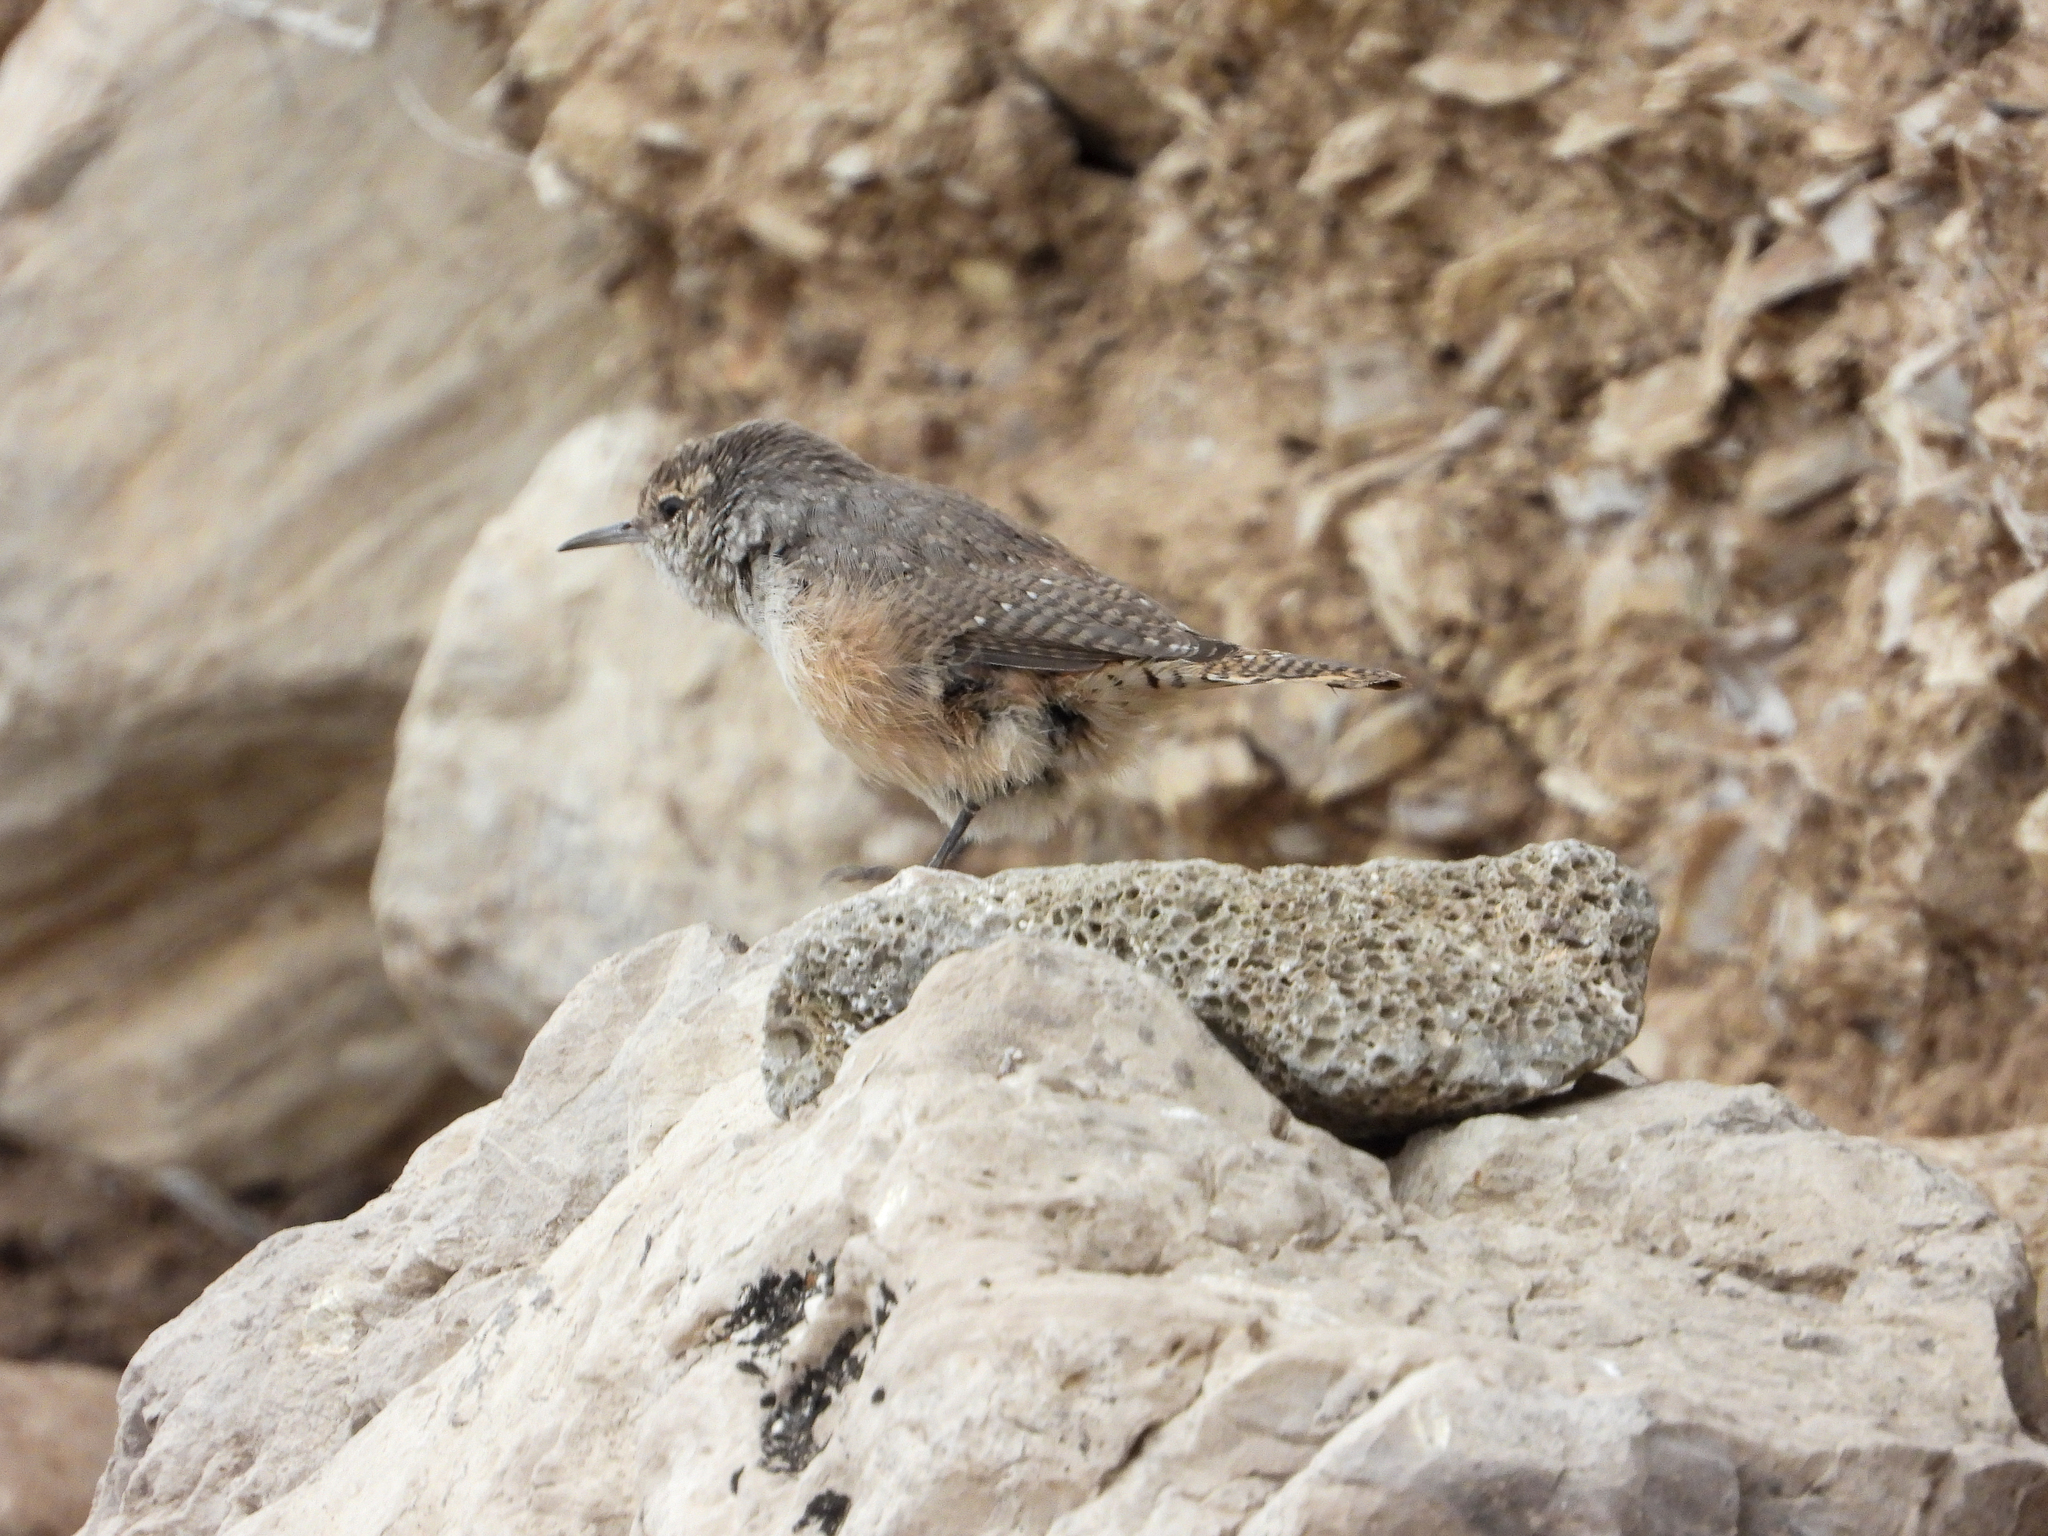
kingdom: Animalia
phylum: Chordata
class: Aves
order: Passeriformes
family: Troglodytidae
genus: Salpinctes
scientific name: Salpinctes obsoletus
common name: Rock wren
